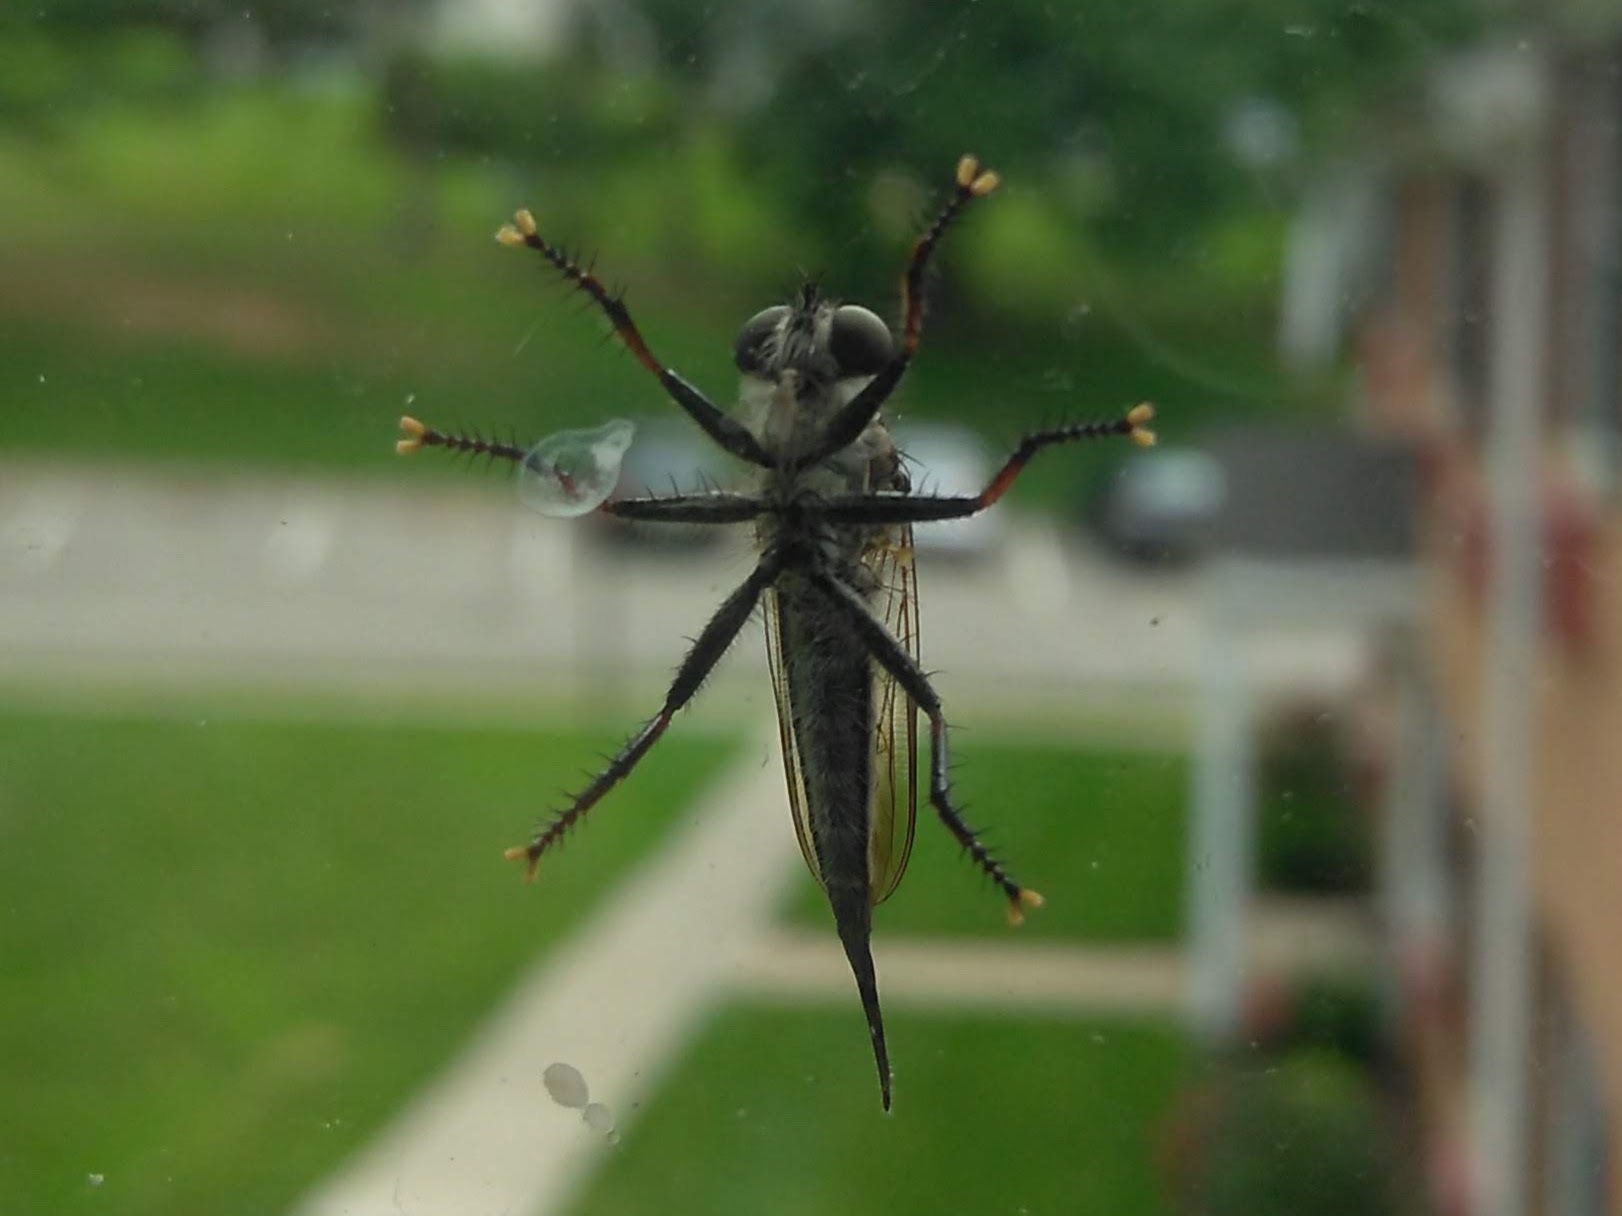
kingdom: Animalia
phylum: Arthropoda
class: Insecta
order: Diptera
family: Asilidae
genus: Efferia
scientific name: Efferia aestuans
